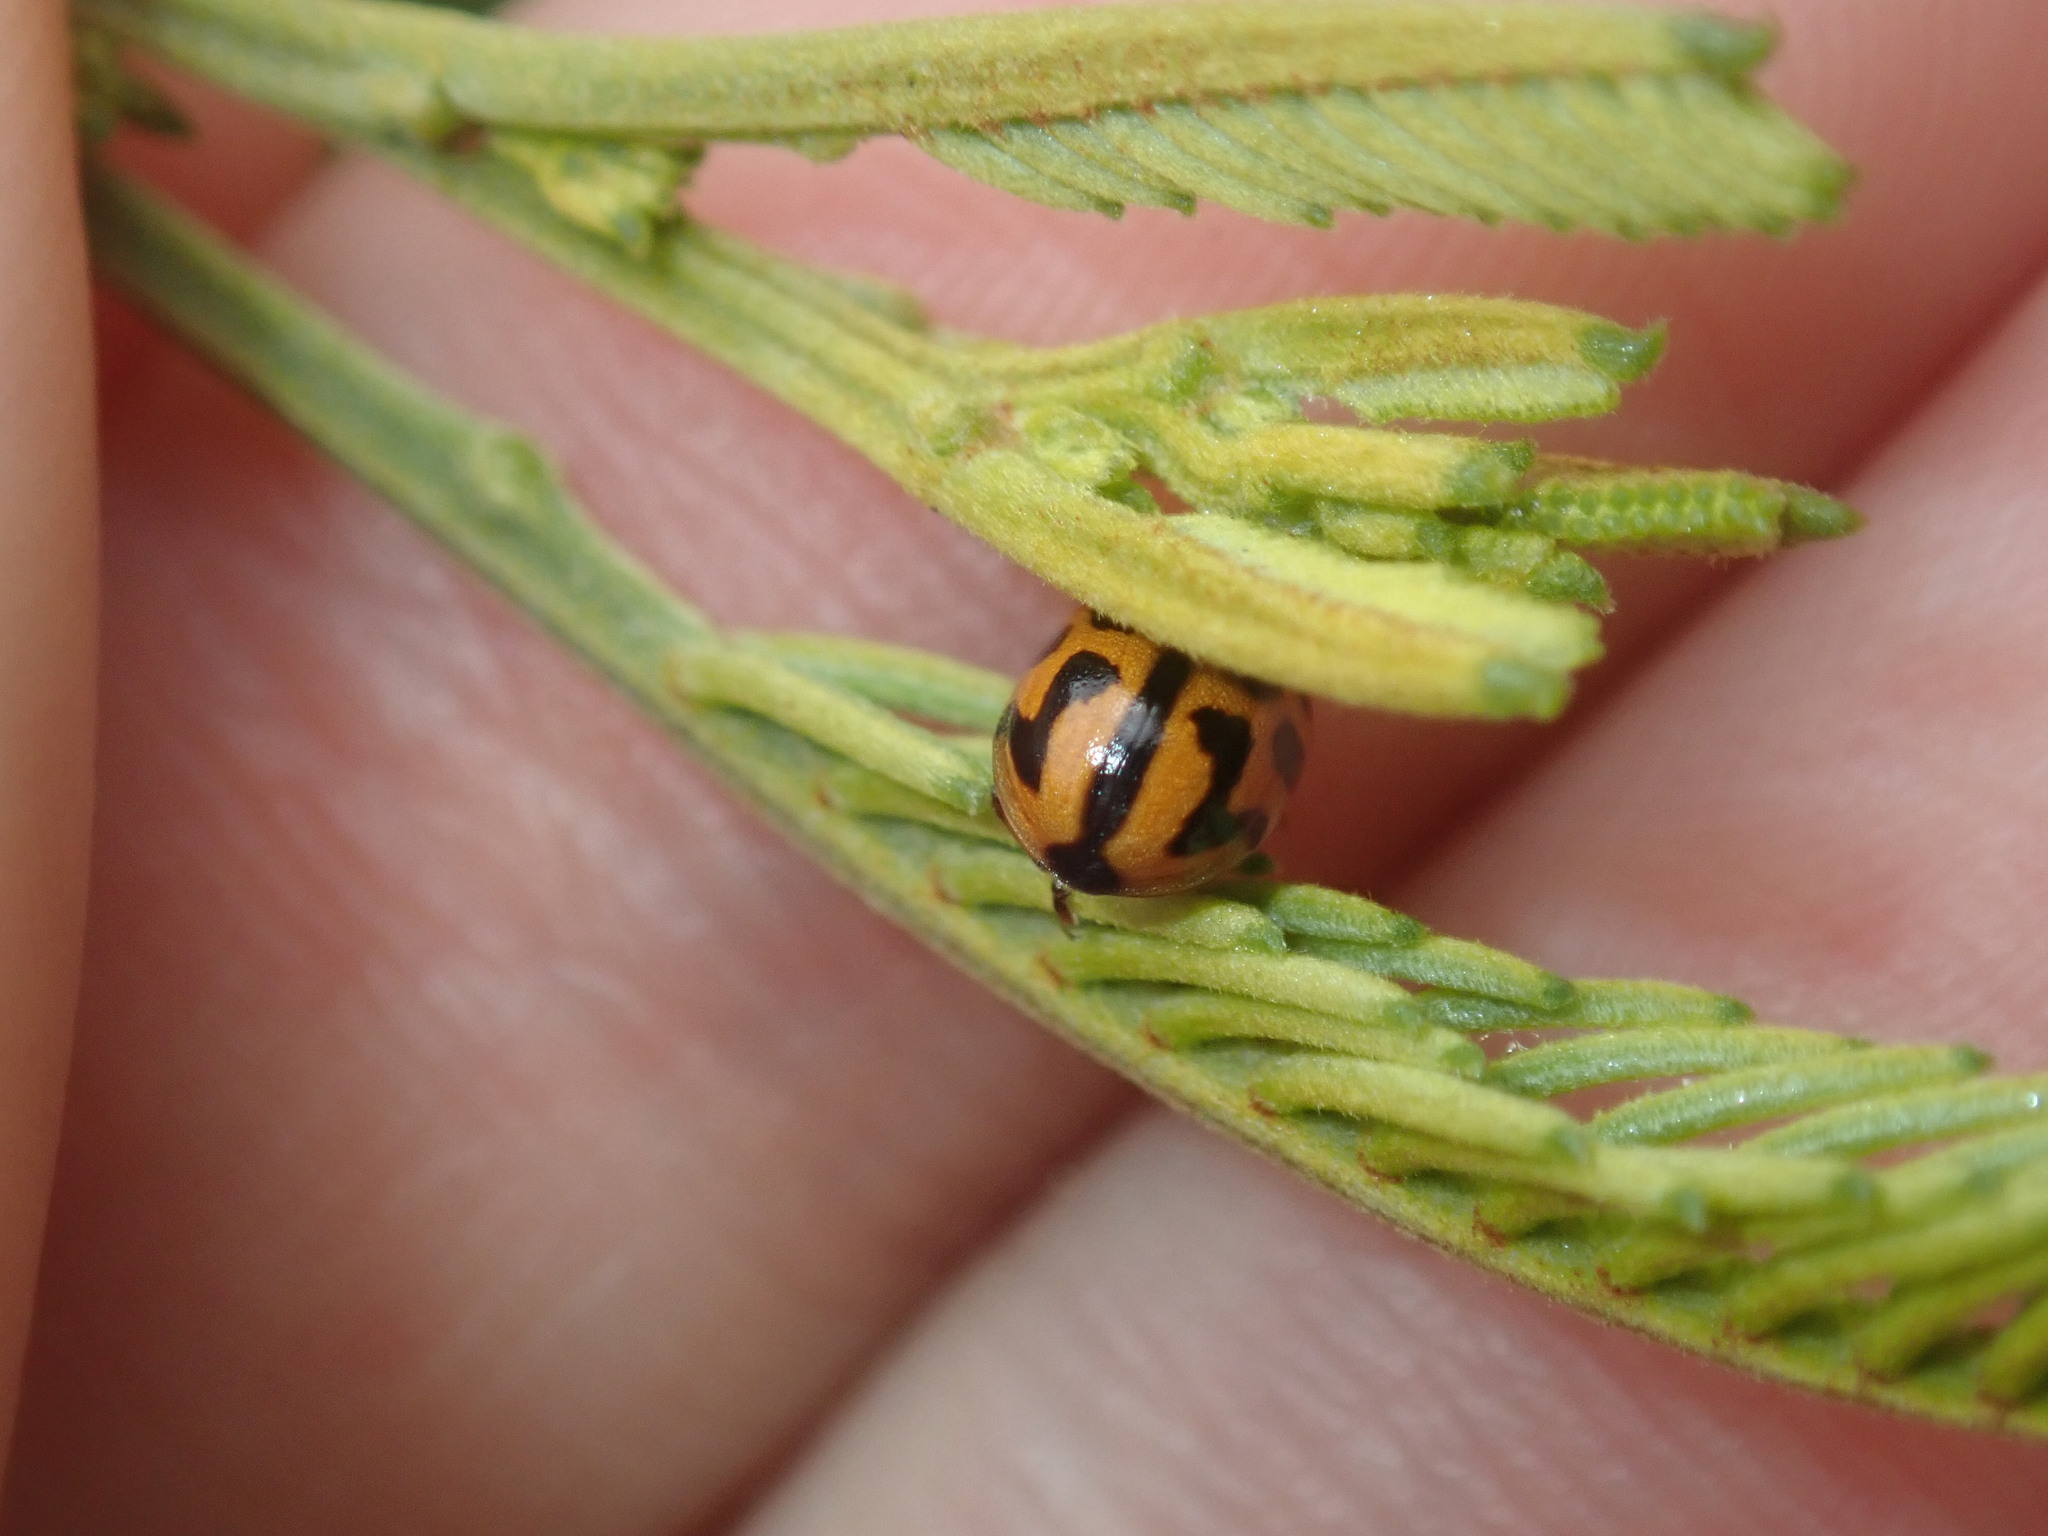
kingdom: Animalia
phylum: Arthropoda
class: Insecta
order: Coleoptera
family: Chrysomelidae
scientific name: Chrysomelidae
